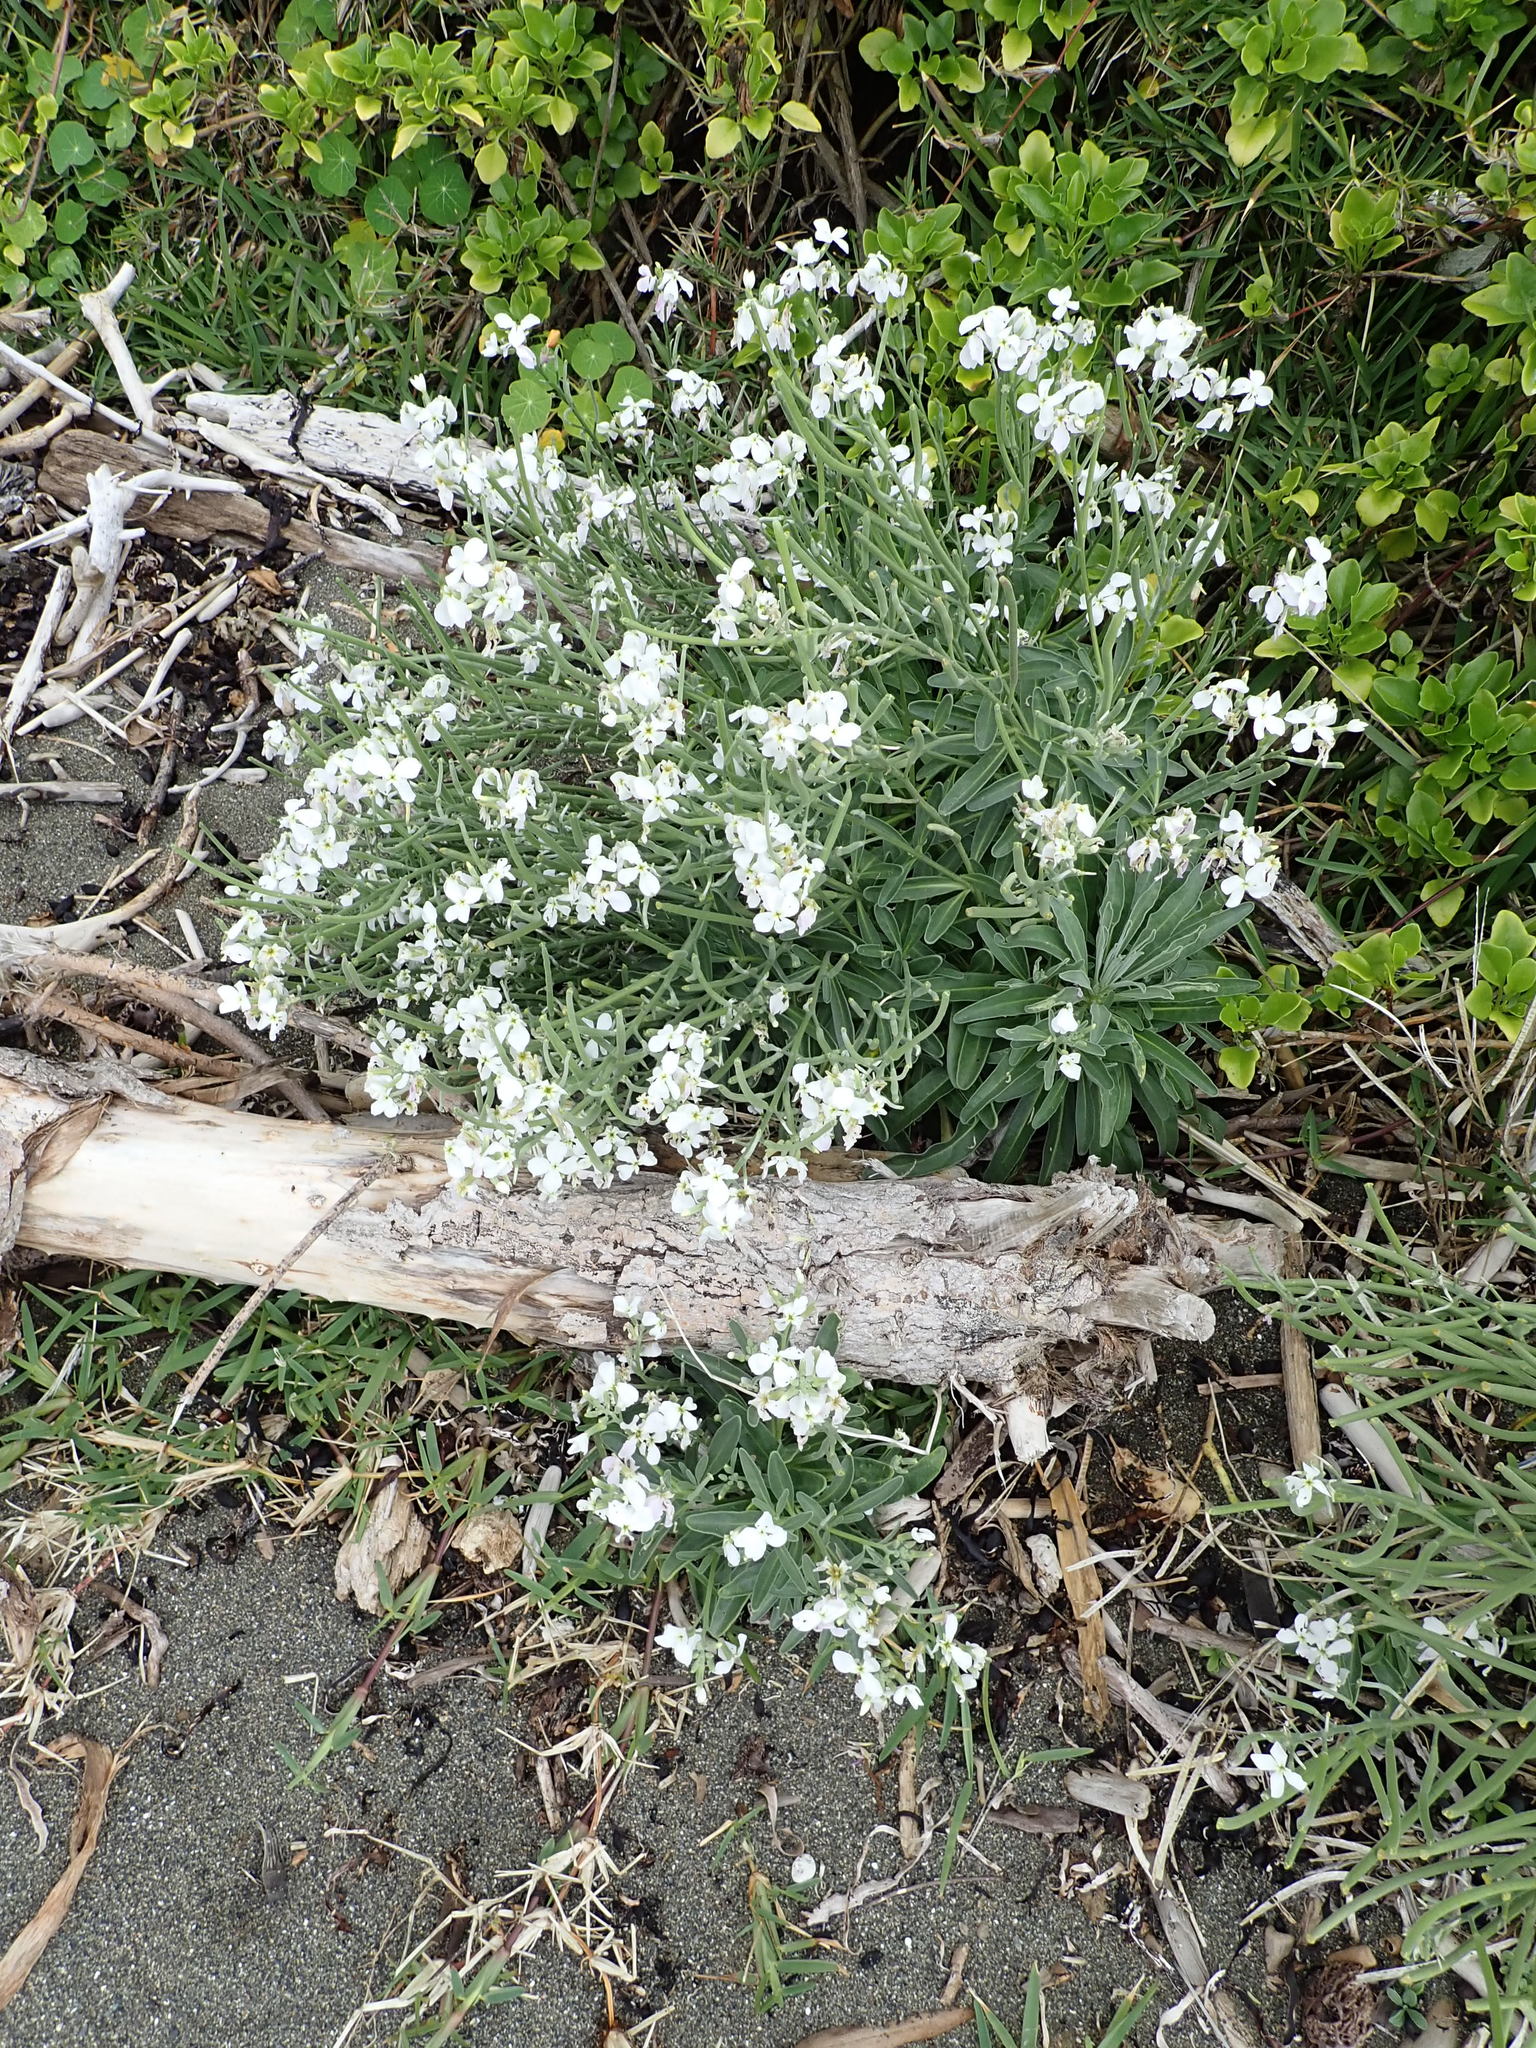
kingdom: Plantae
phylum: Tracheophyta
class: Magnoliopsida
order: Brassicales
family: Brassicaceae
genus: Matthiola
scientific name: Matthiola incana
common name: Hoary stock
